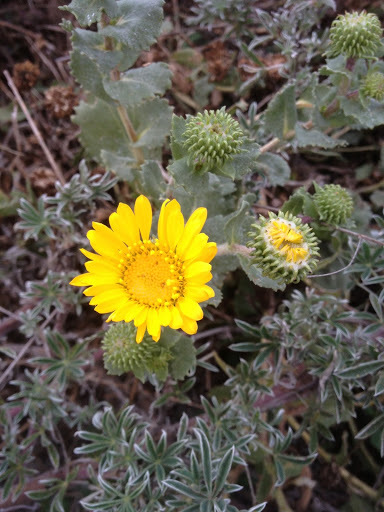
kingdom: Plantae
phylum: Tracheophyta
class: Magnoliopsida
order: Asterales
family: Asteraceae
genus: Grindelia
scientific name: Grindelia hirsutula
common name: Hairy gumweed
